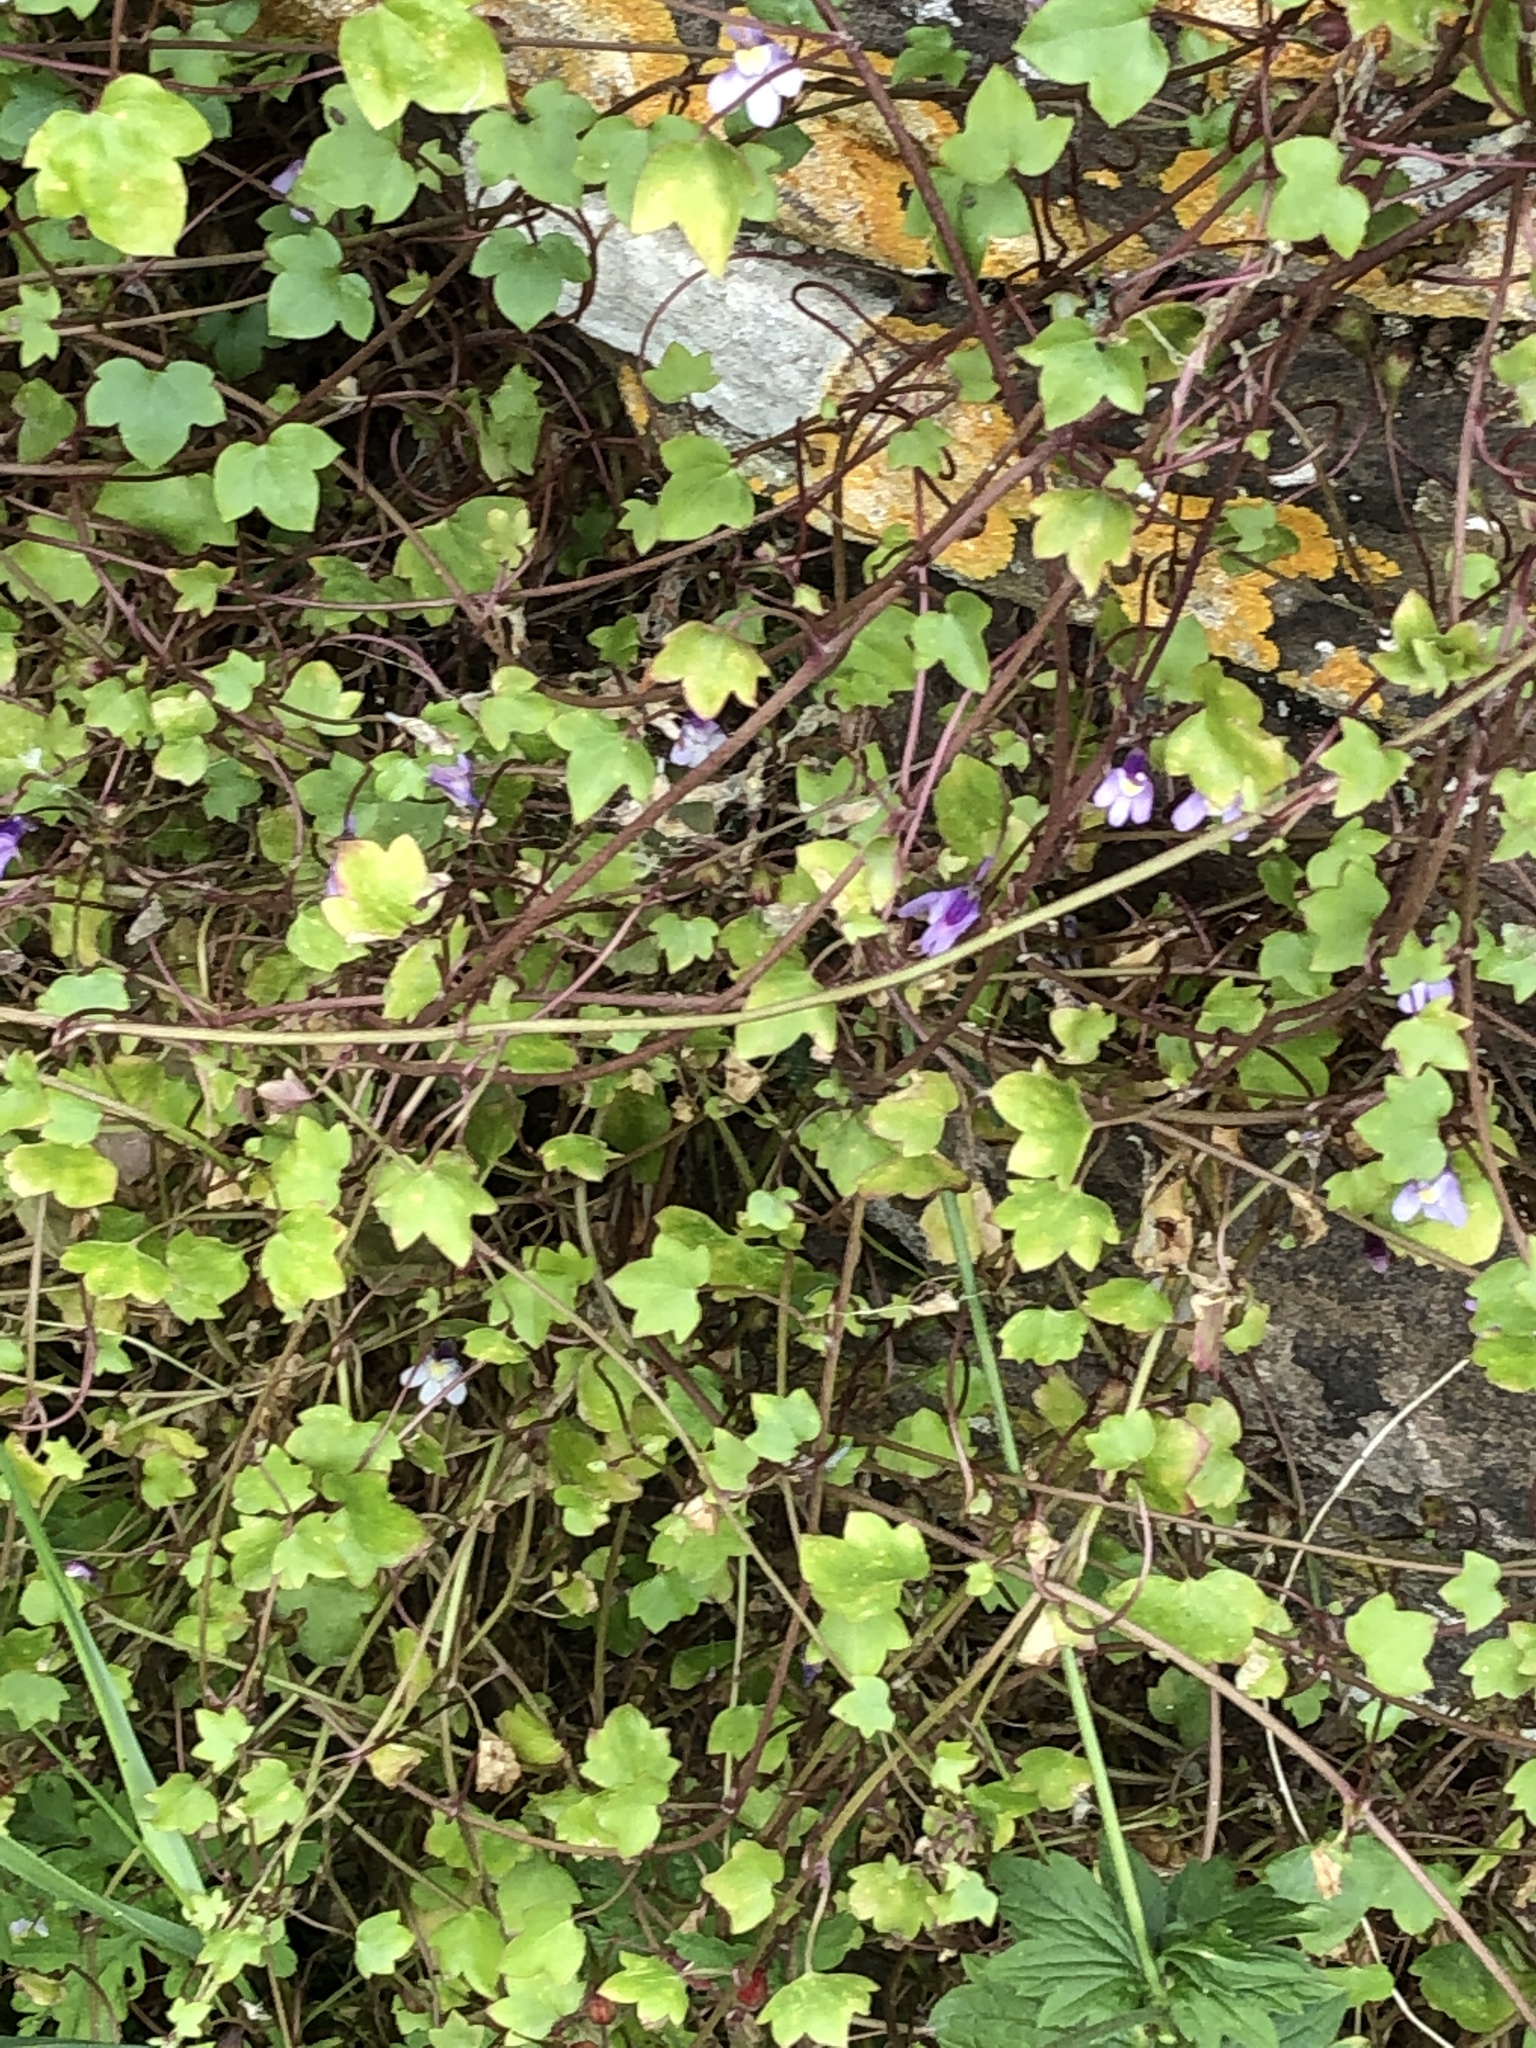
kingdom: Plantae
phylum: Tracheophyta
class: Magnoliopsida
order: Lamiales
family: Plantaginaceae
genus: Cymbalaria
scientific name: Cymbalaria muralis
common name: Ivy-leaved toadflax
